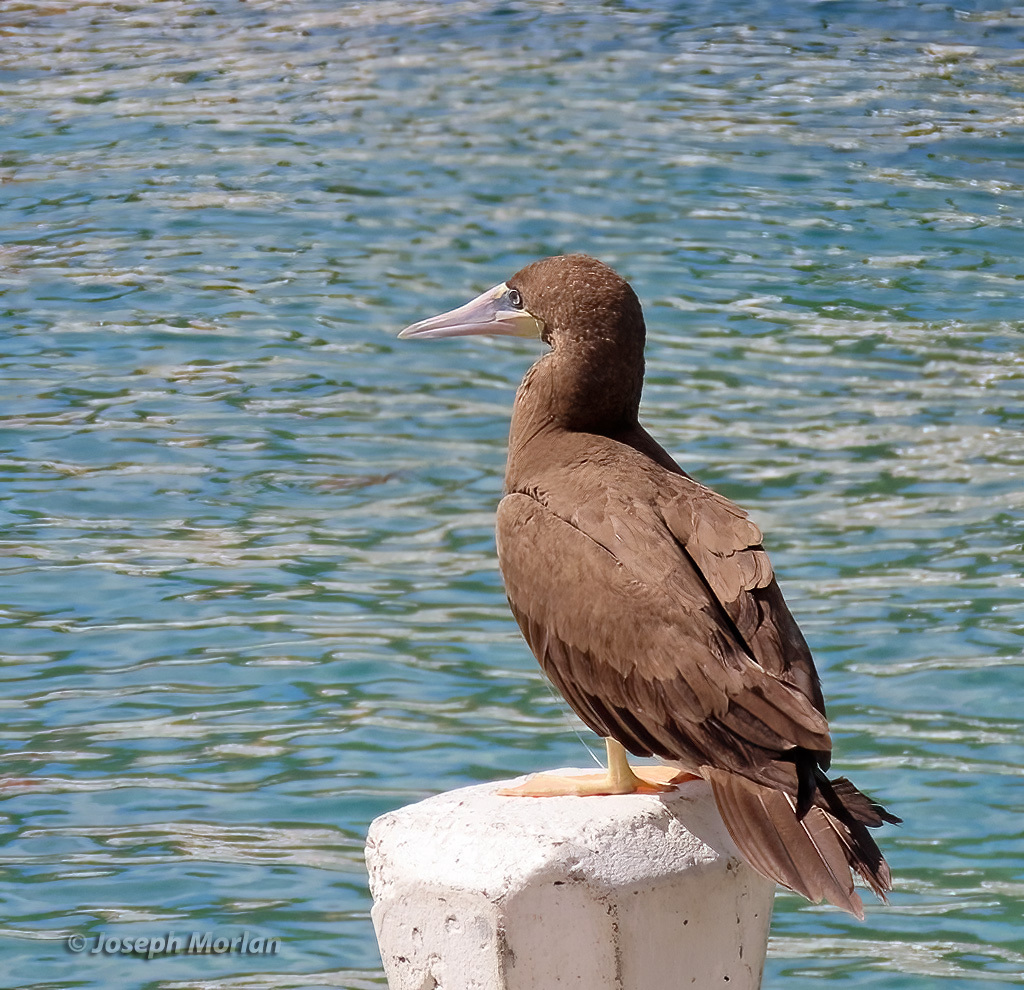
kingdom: Animalia
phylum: Chordata
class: Aves
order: Suliformes
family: Sulidae
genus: Sula
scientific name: Sula leucogaster
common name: Brown booby
